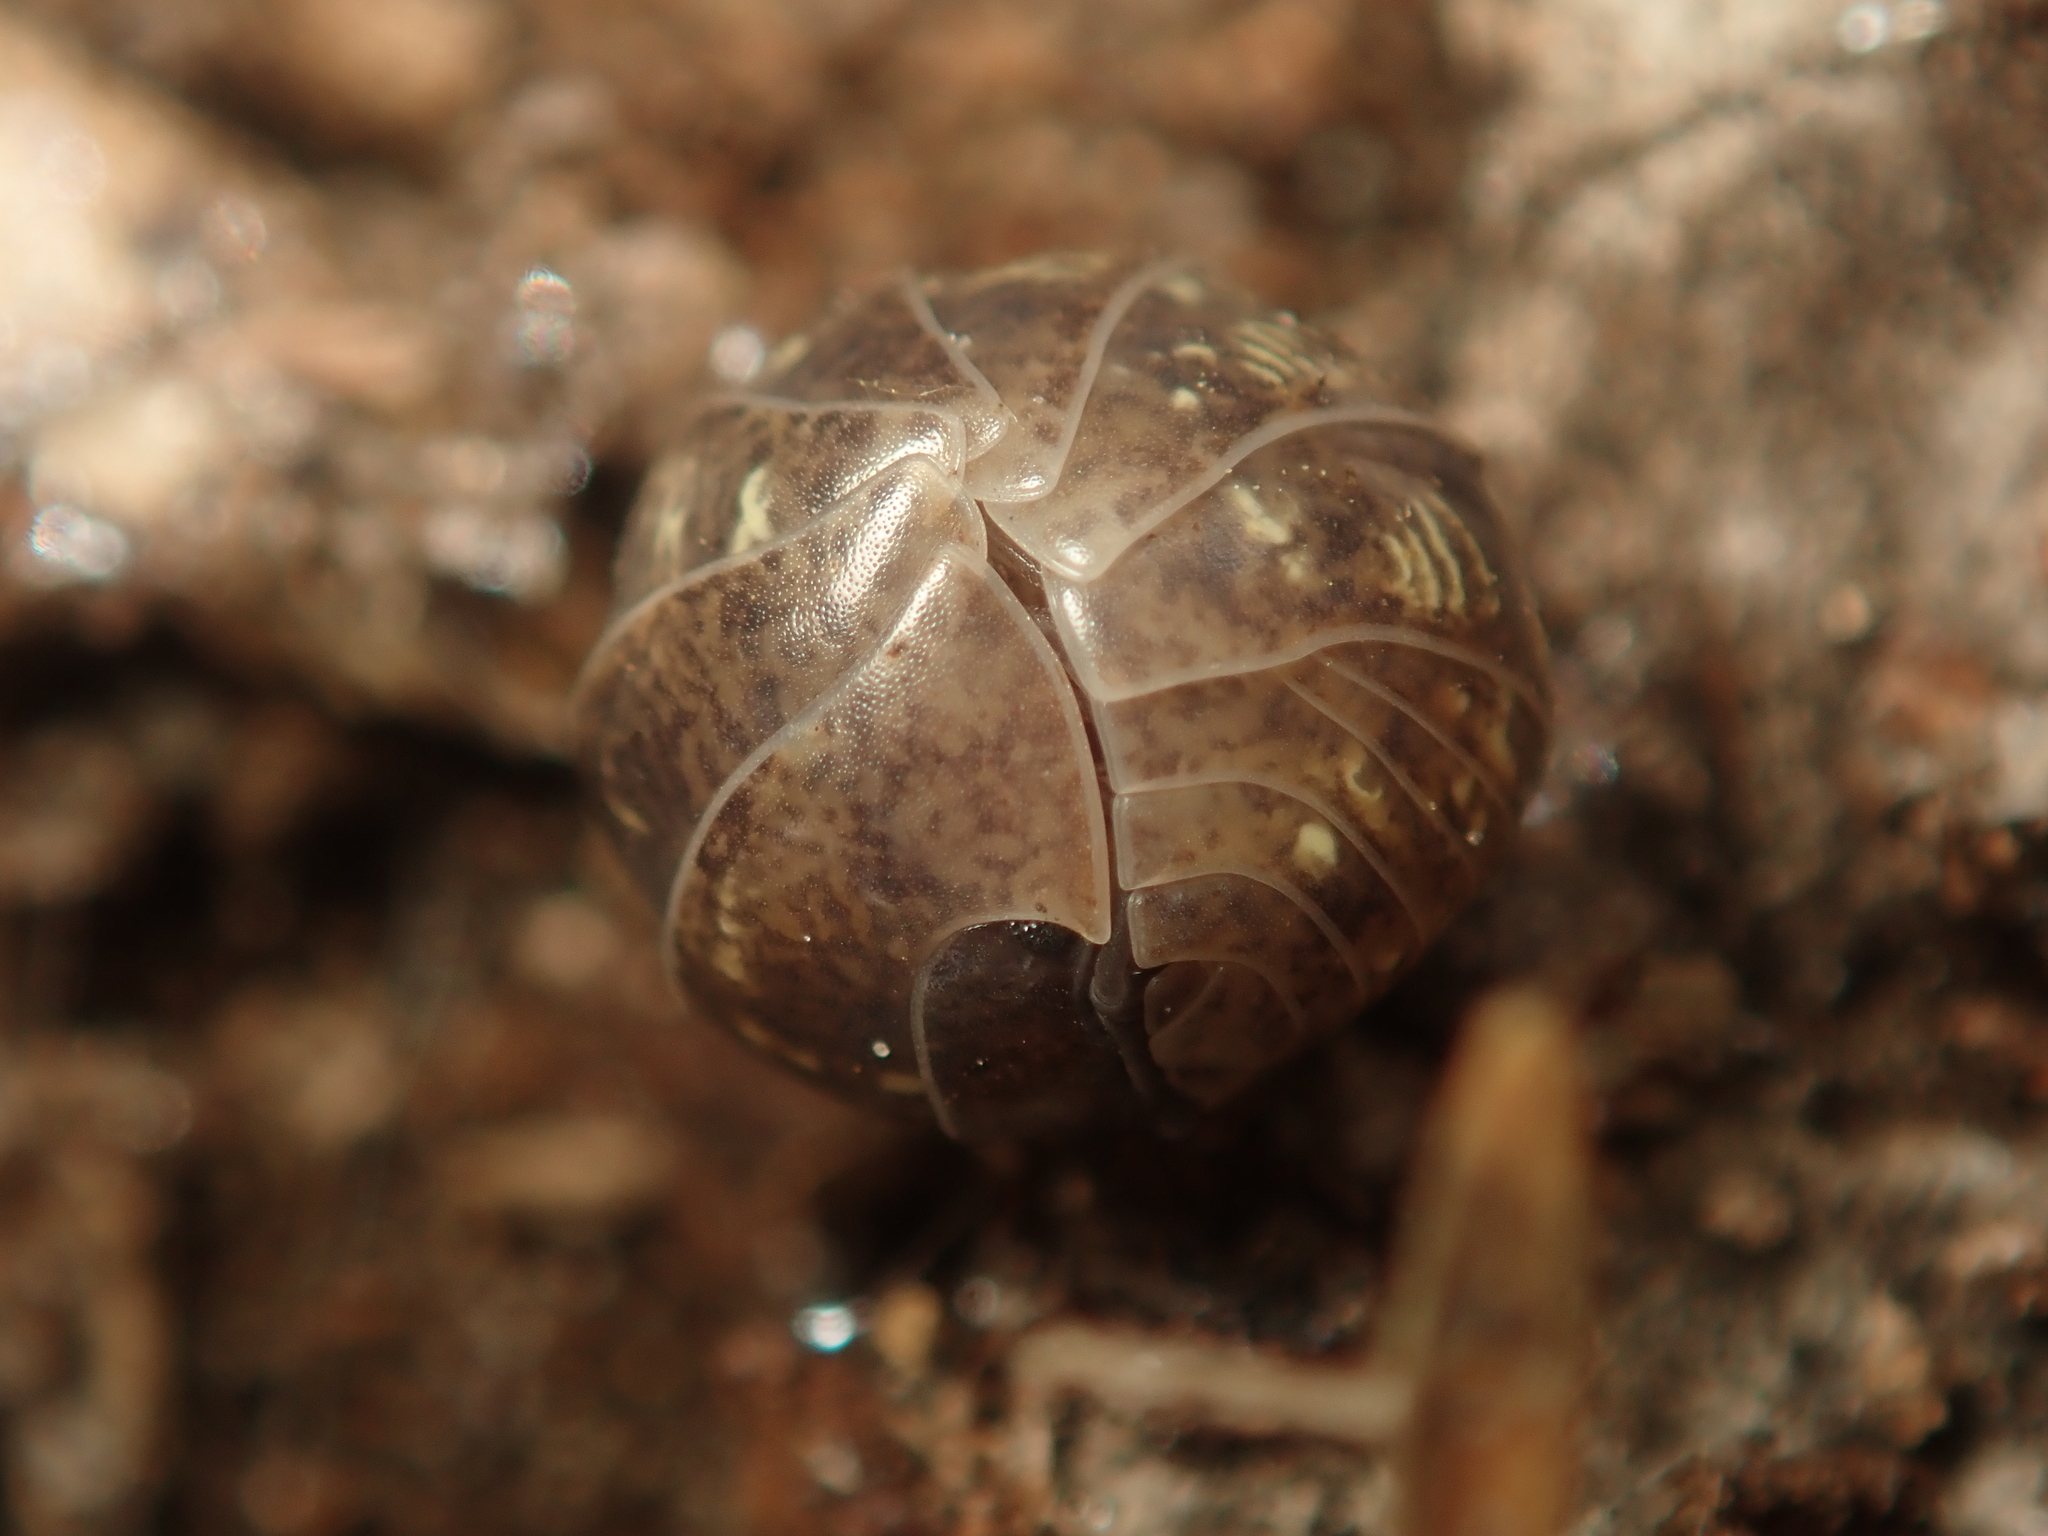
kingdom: Animalia
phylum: Arthropoda
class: Malacostraca
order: Isopoda
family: Armadillidiidae
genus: Armadillidium
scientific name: Armadillidium vulgare
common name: Common pill woodlouse
